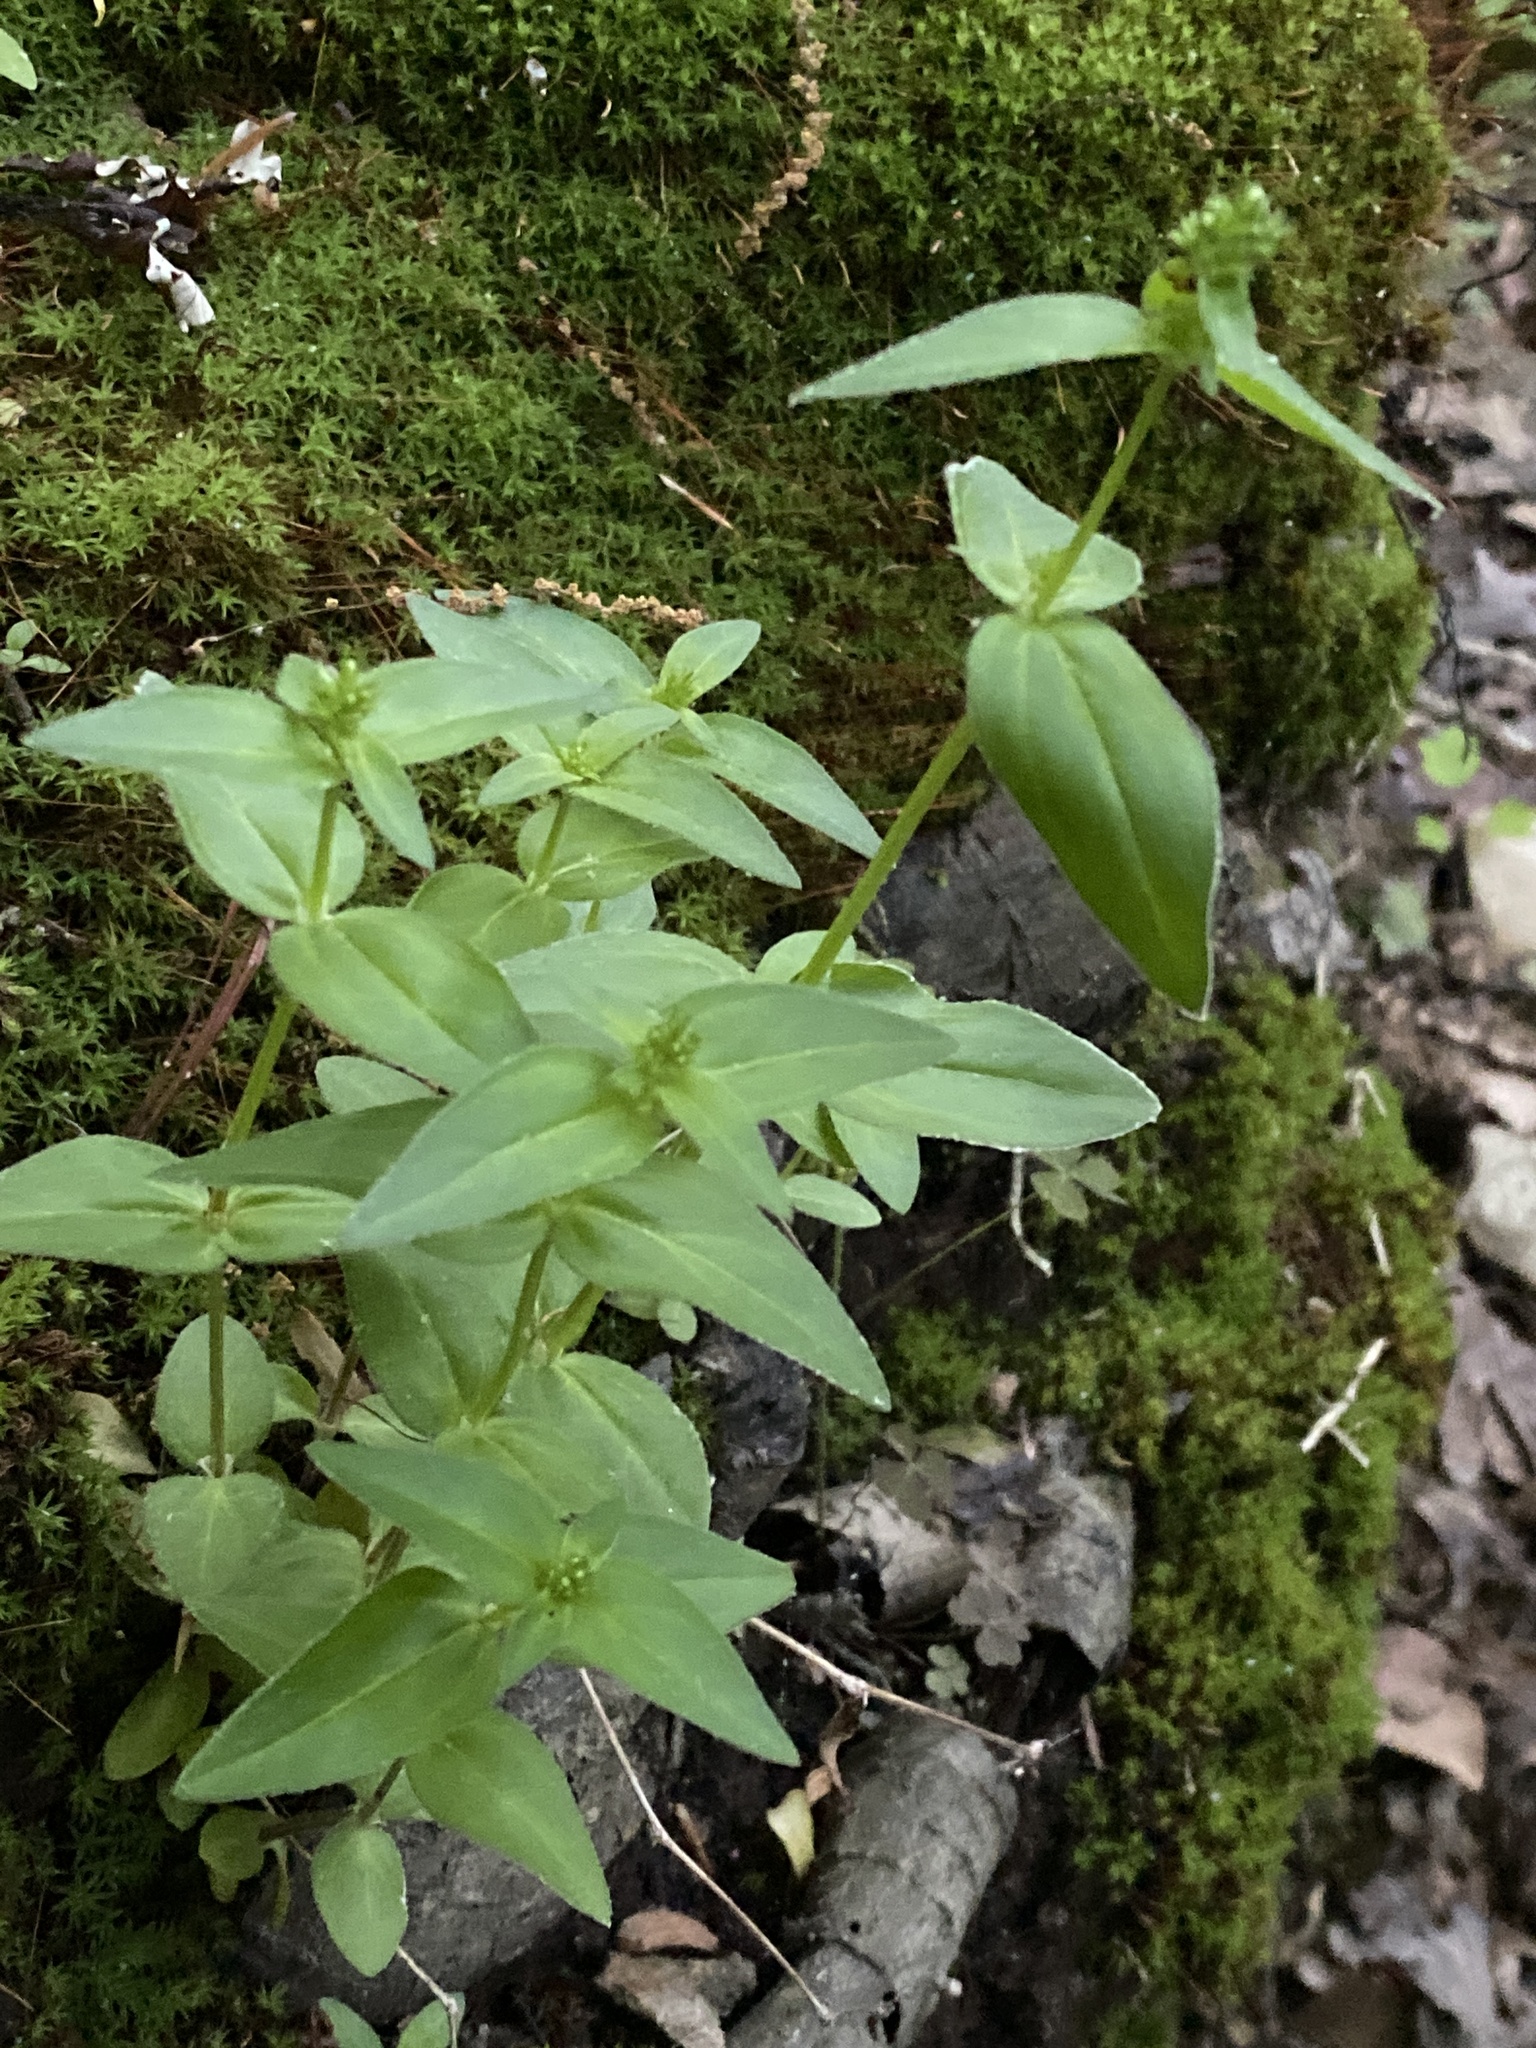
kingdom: Plantae
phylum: Tracheophyta
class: Magnoliopsida
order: Gentianales
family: Rubiaceae
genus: Houstonia
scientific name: Houstonia purpurea
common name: Summer bluet
